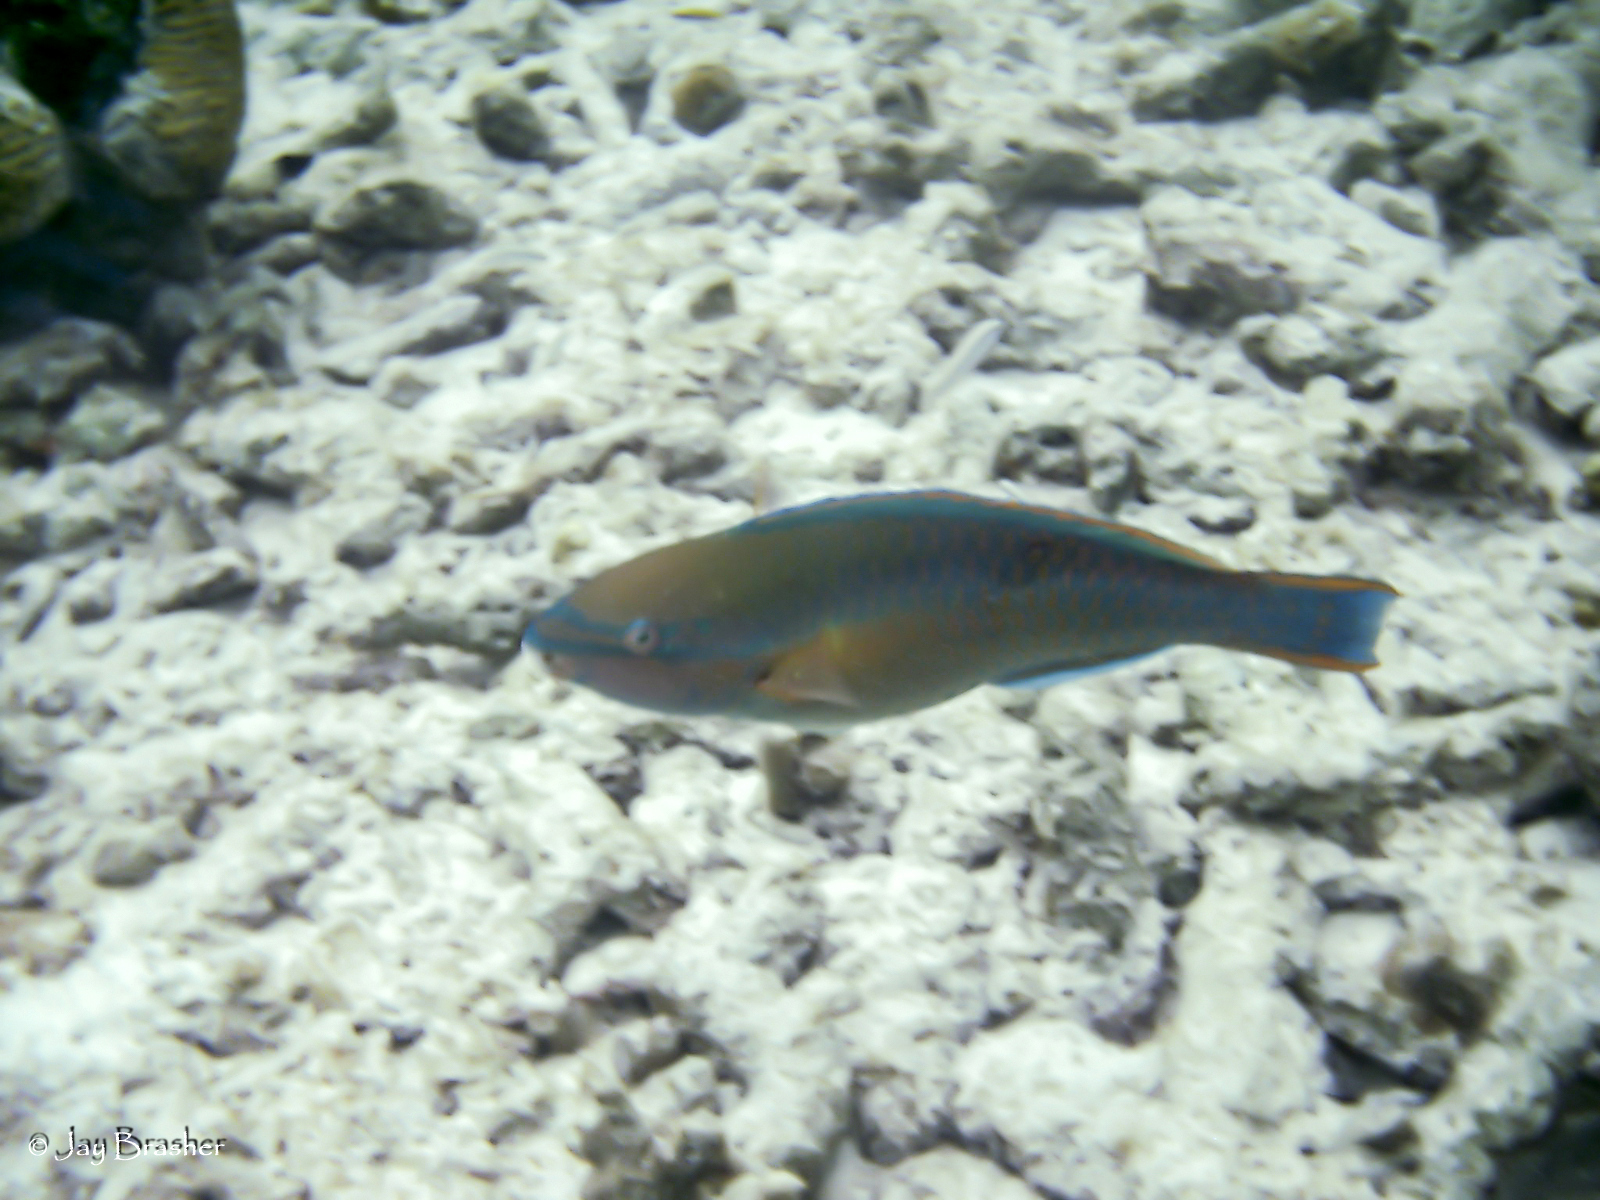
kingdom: Animalia
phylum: Chordata
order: Perciformes
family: Scaridae
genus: Scarus
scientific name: Scarus taeniopterus
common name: Princess parrotfish
